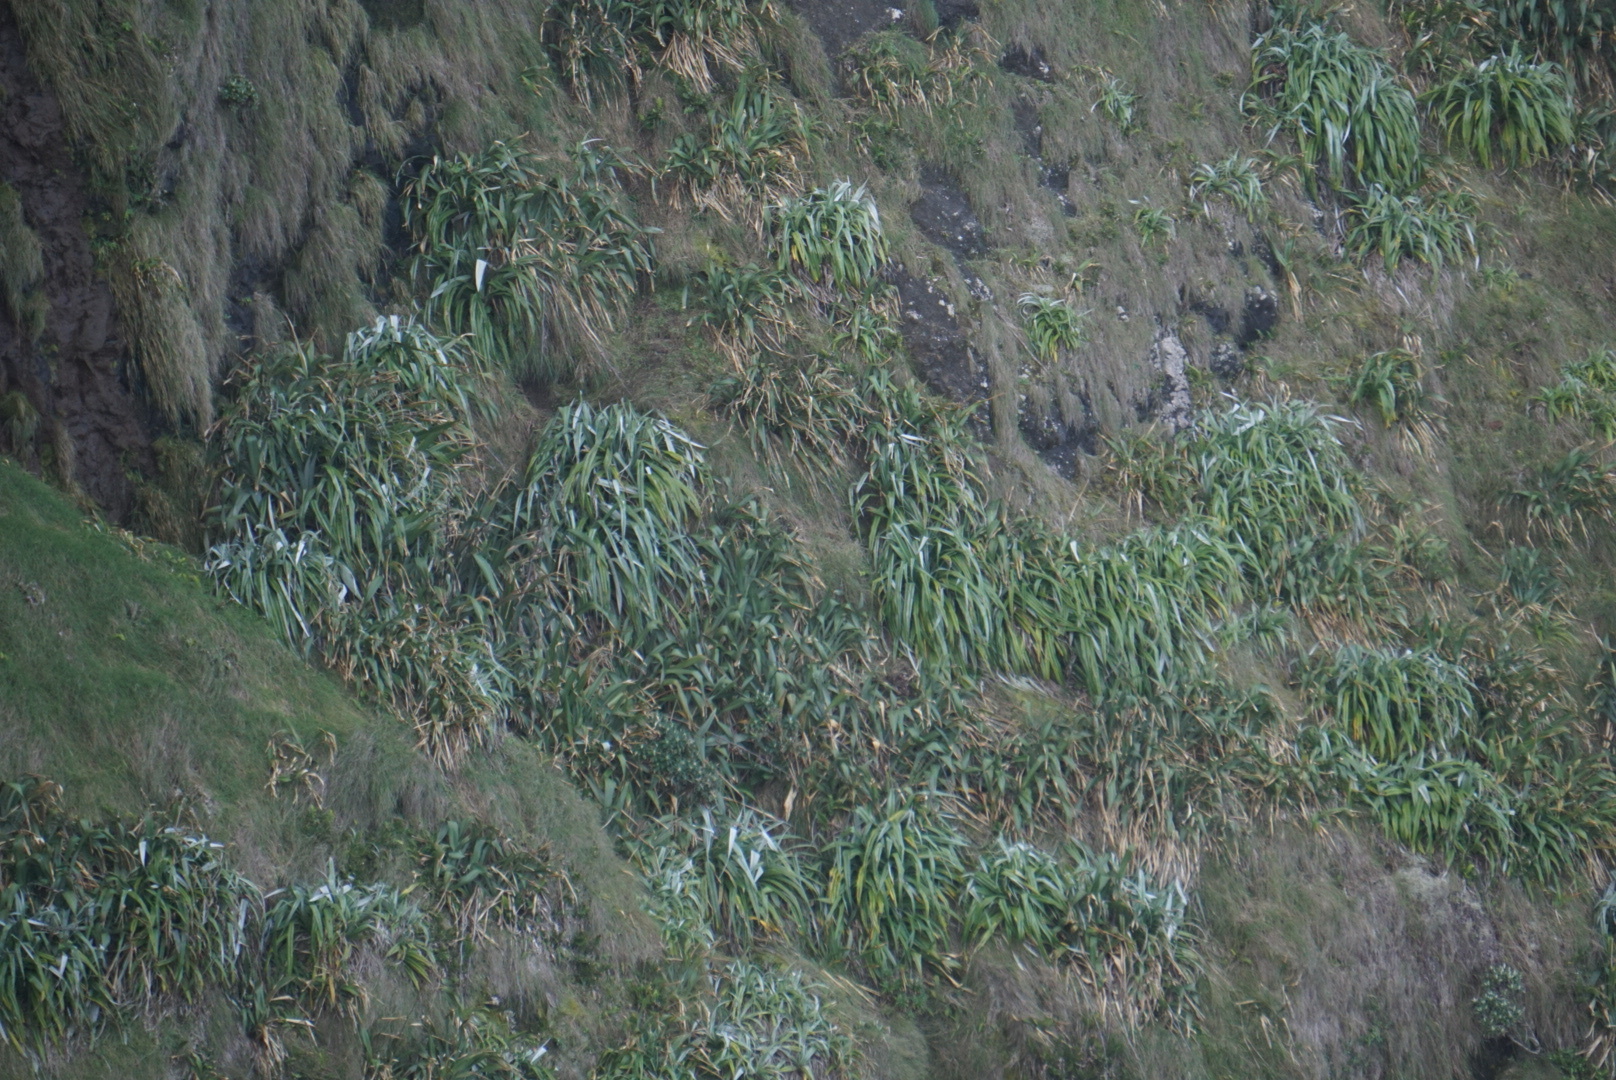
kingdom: Plantae
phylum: Tracheophyta
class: Liliopsida
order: Asparagales
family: Asteliaceae
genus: Astelia
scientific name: Astelia chathamica
